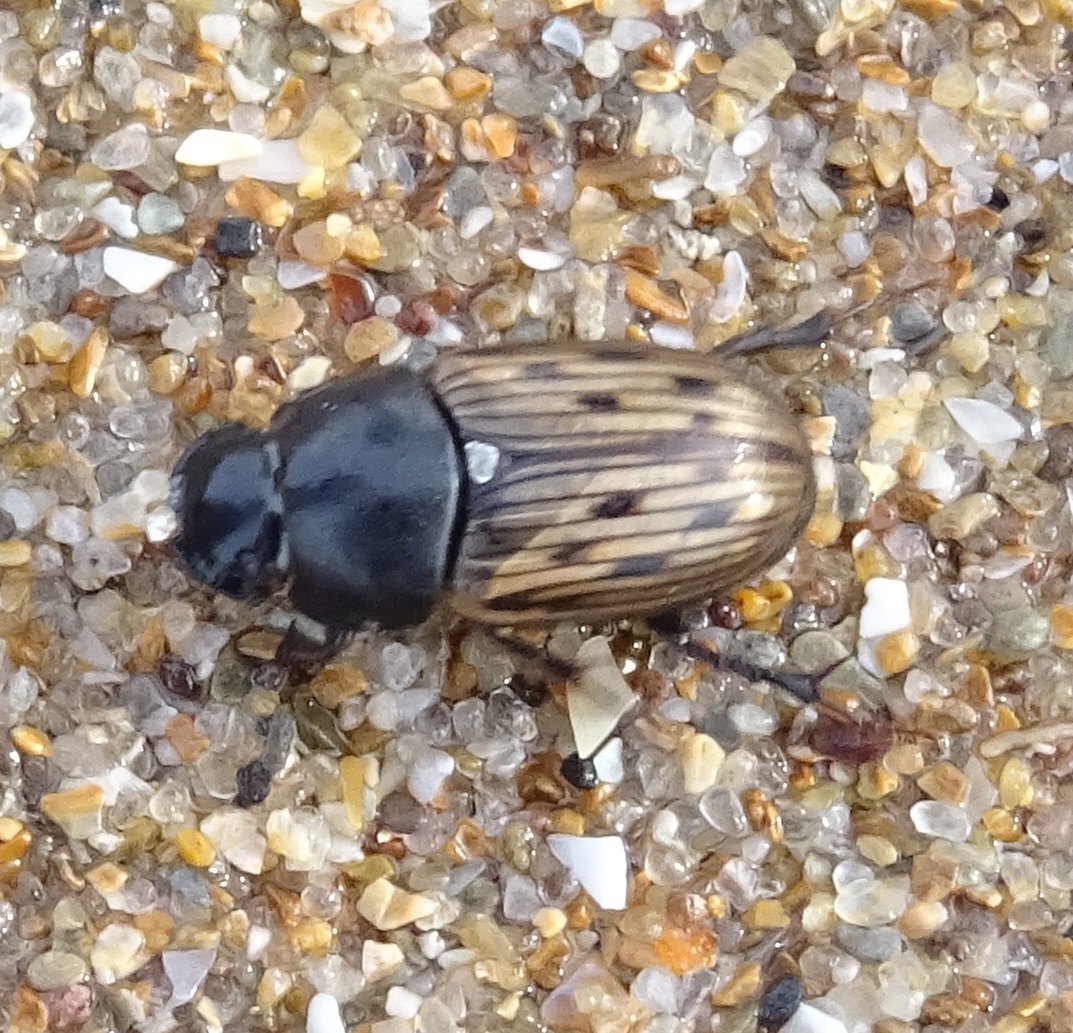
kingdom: Animalia
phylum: Arthropoda
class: Insecta
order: Coleoptera
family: Scarabaeidae
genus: Acrossus
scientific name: Acrossus luridus
